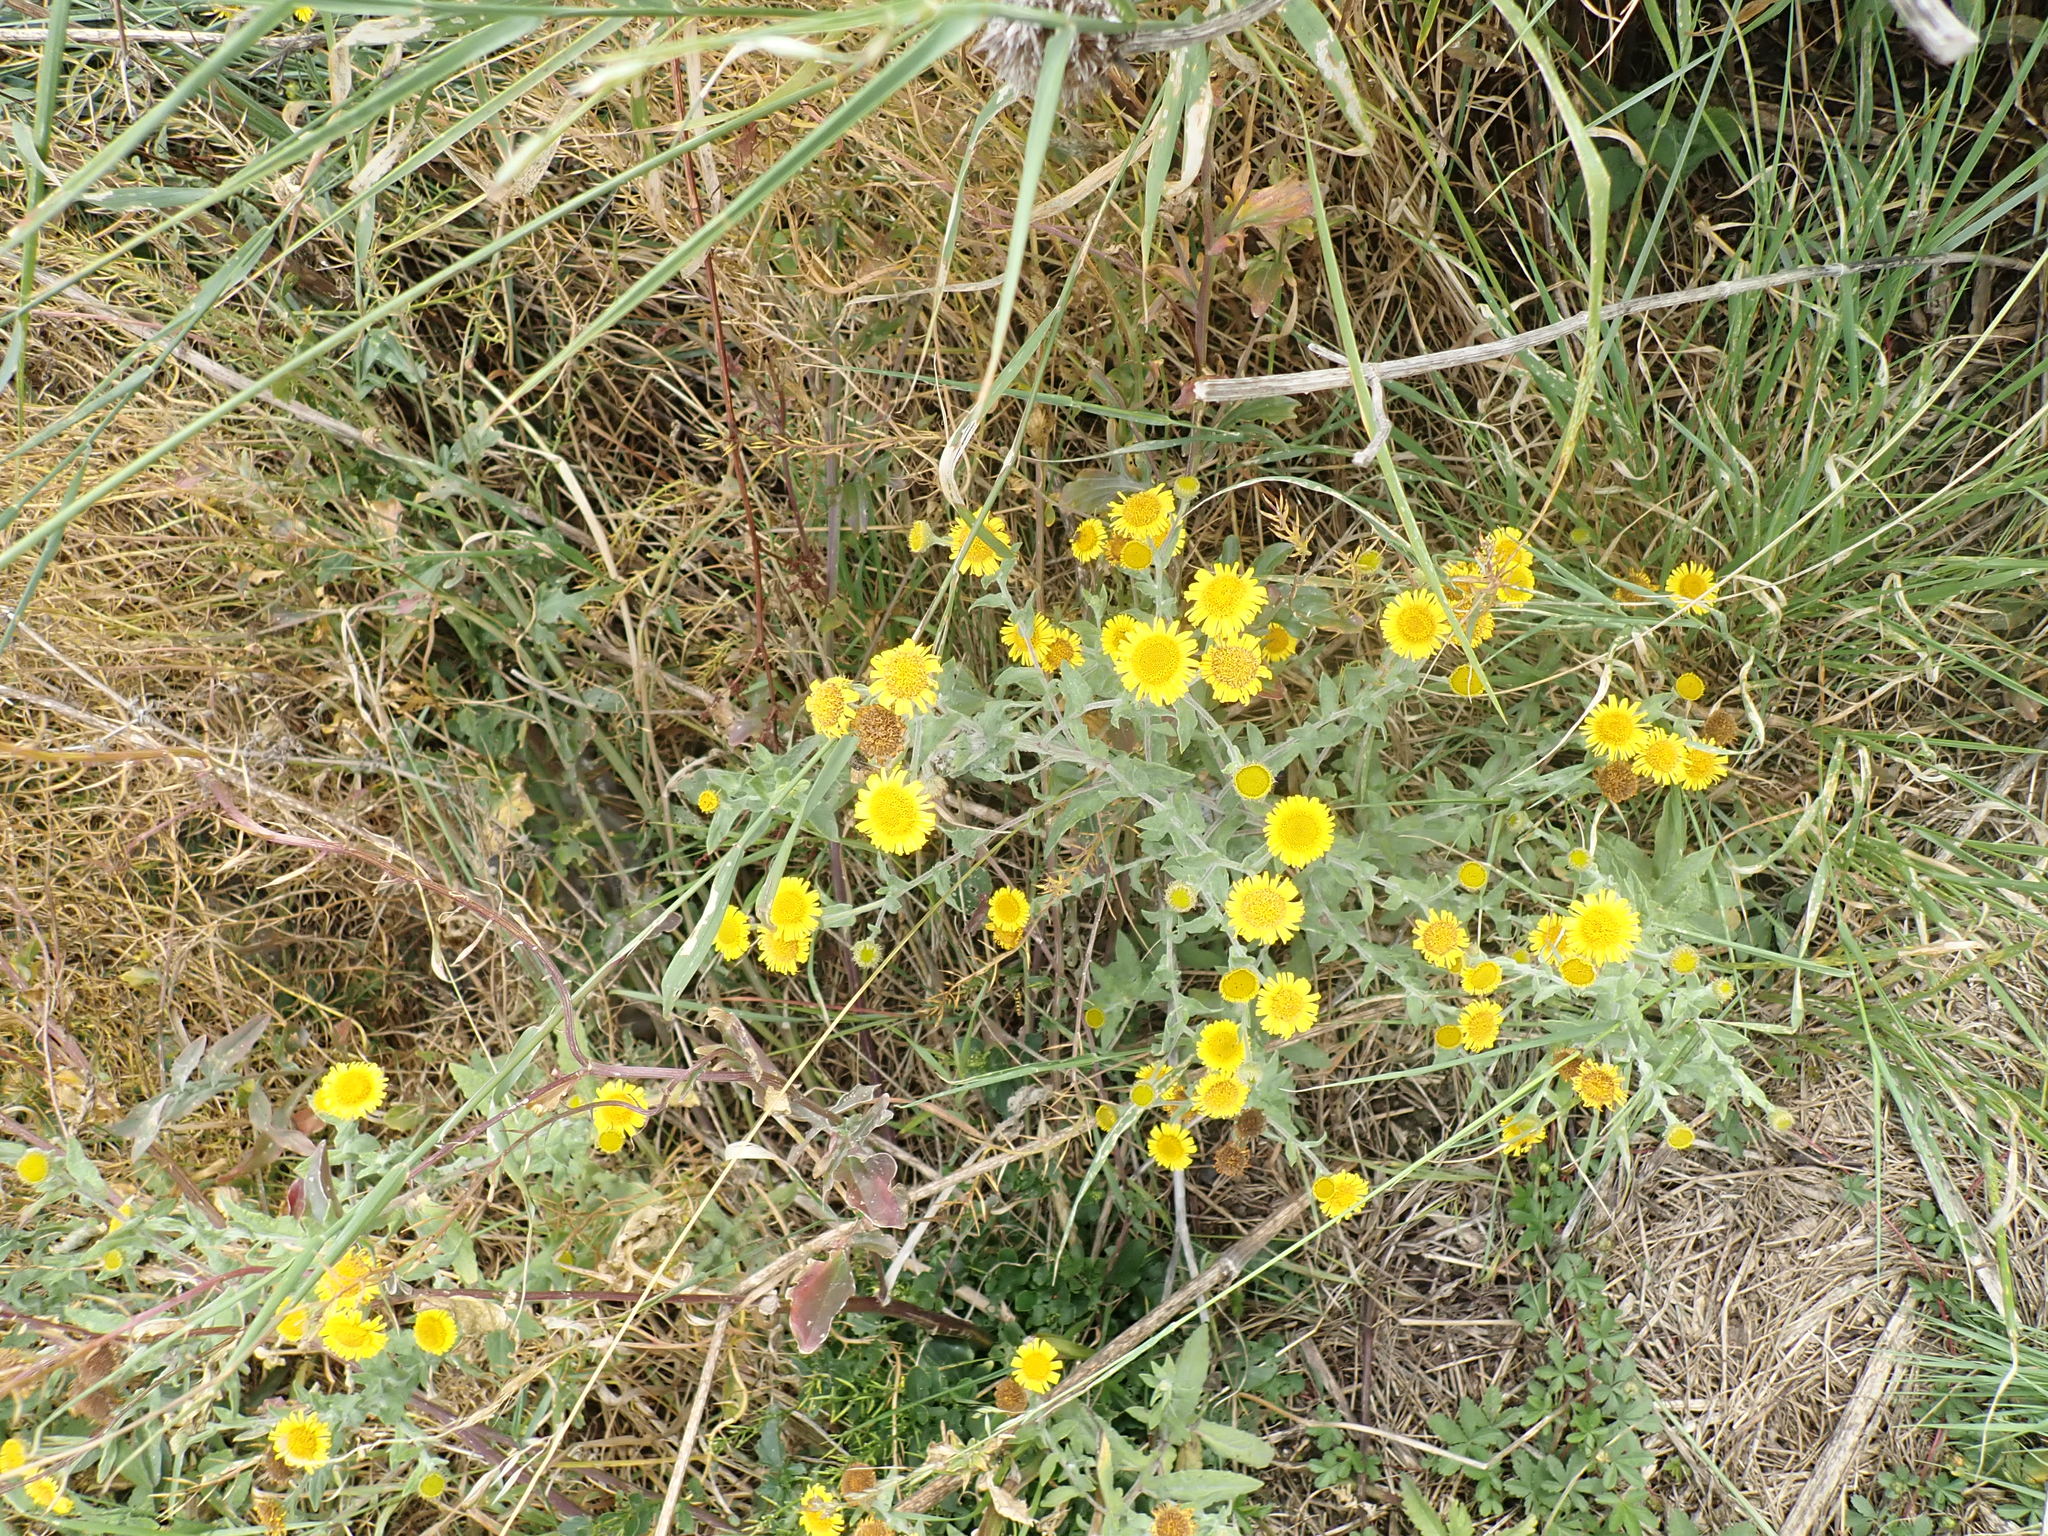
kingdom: Plantae
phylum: Tracheophyta
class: Magnoliopsida
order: Asterales
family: Asteraceae
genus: Pulicaria
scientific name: Pulicaria dysenterica
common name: Common fleabane
